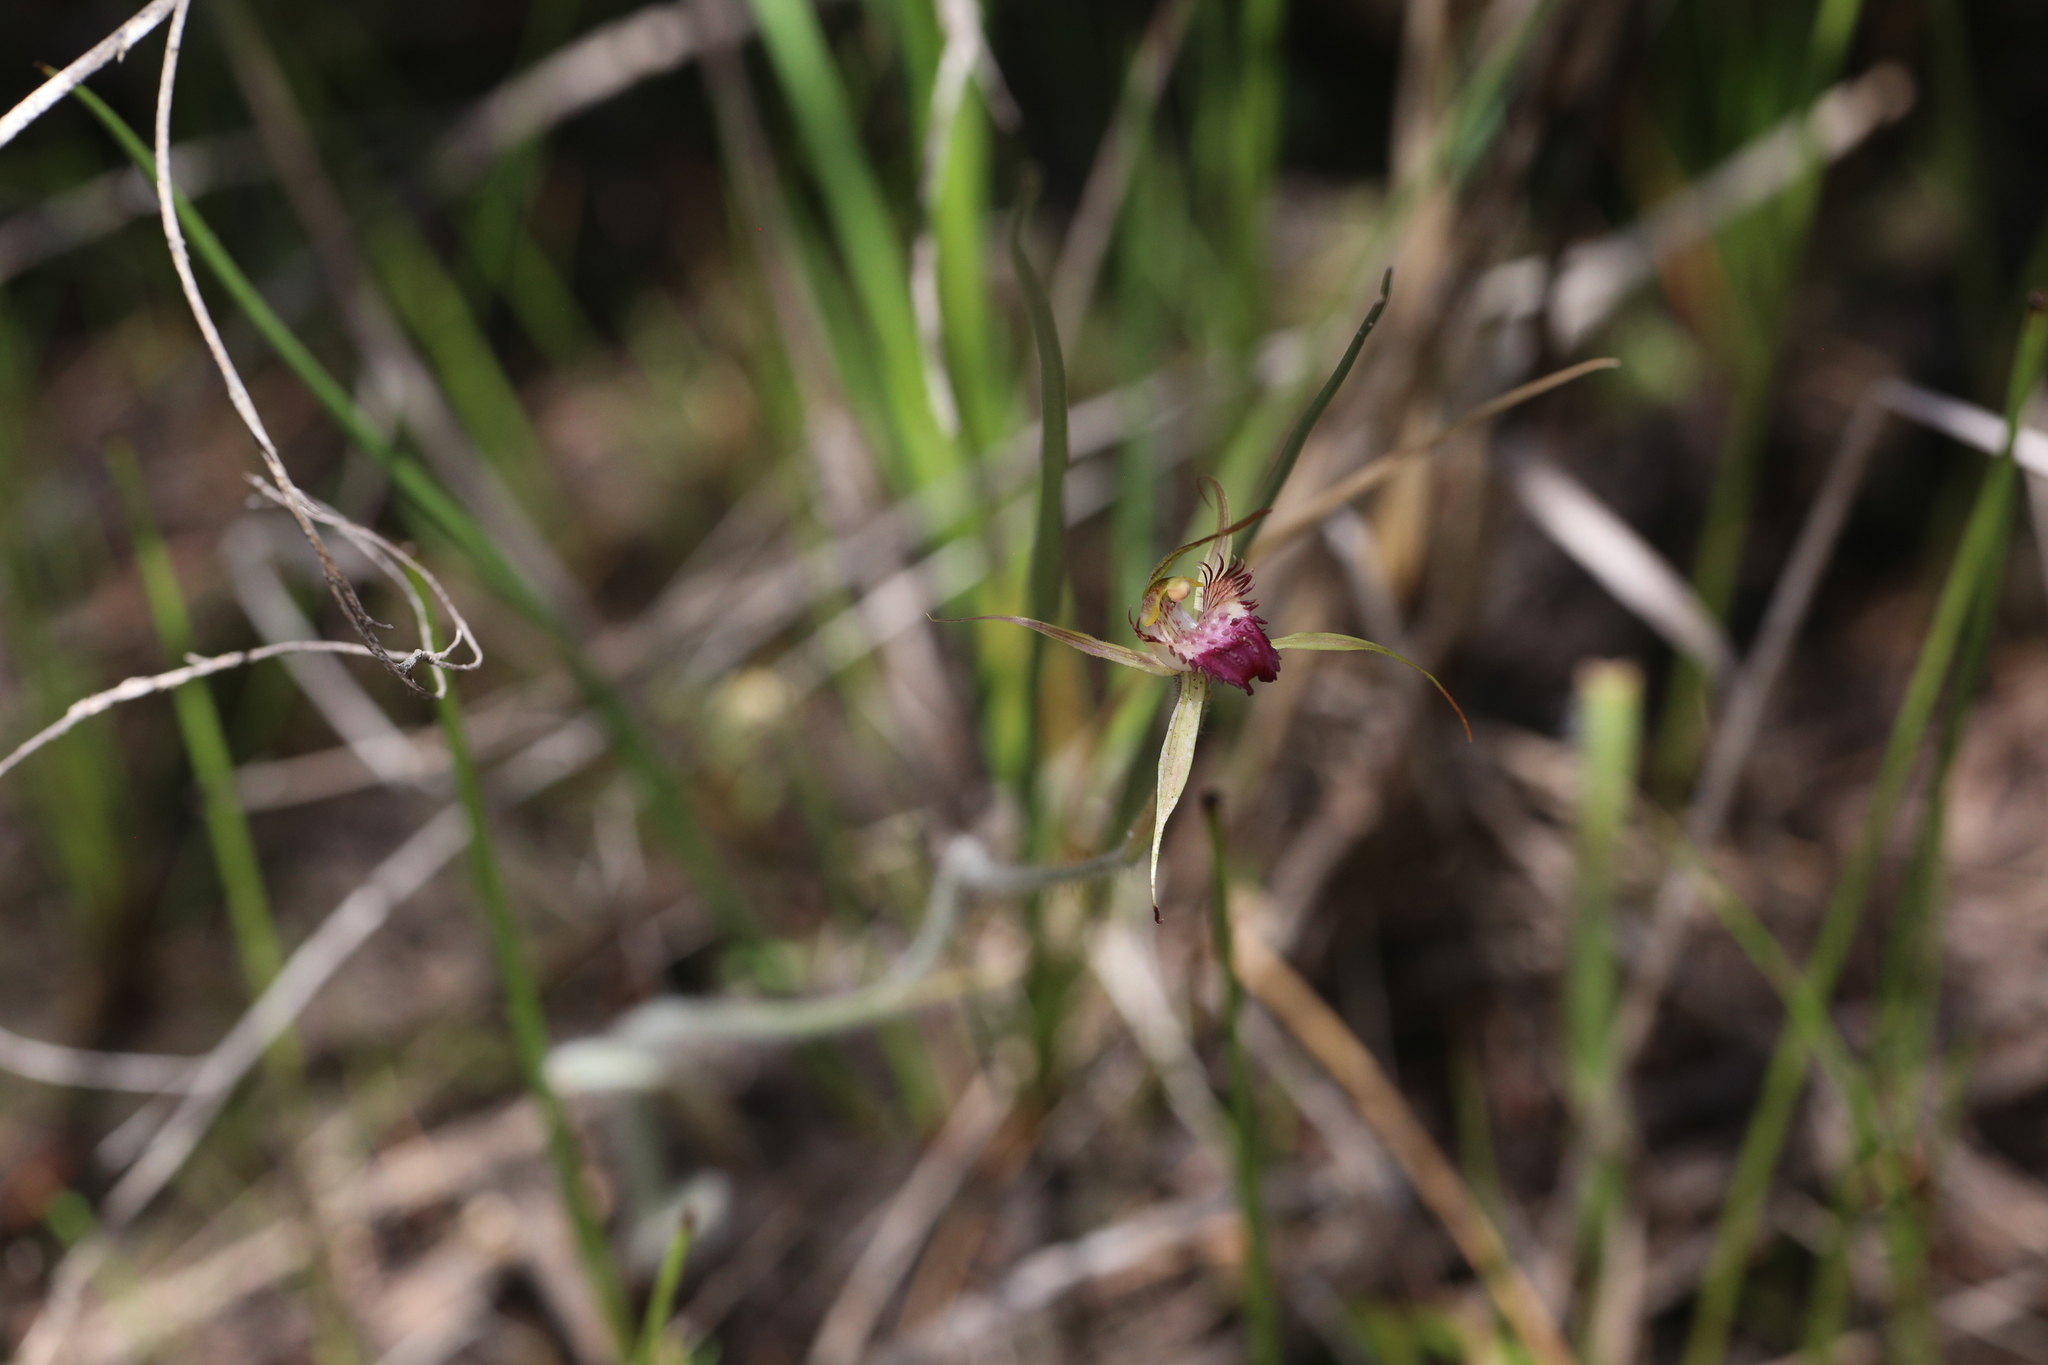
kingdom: Plantae
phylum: Tracheophyta
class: Liliopsida
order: Asparagales
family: Orchidaceae
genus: Caladenia
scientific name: Caladenia paludosa
